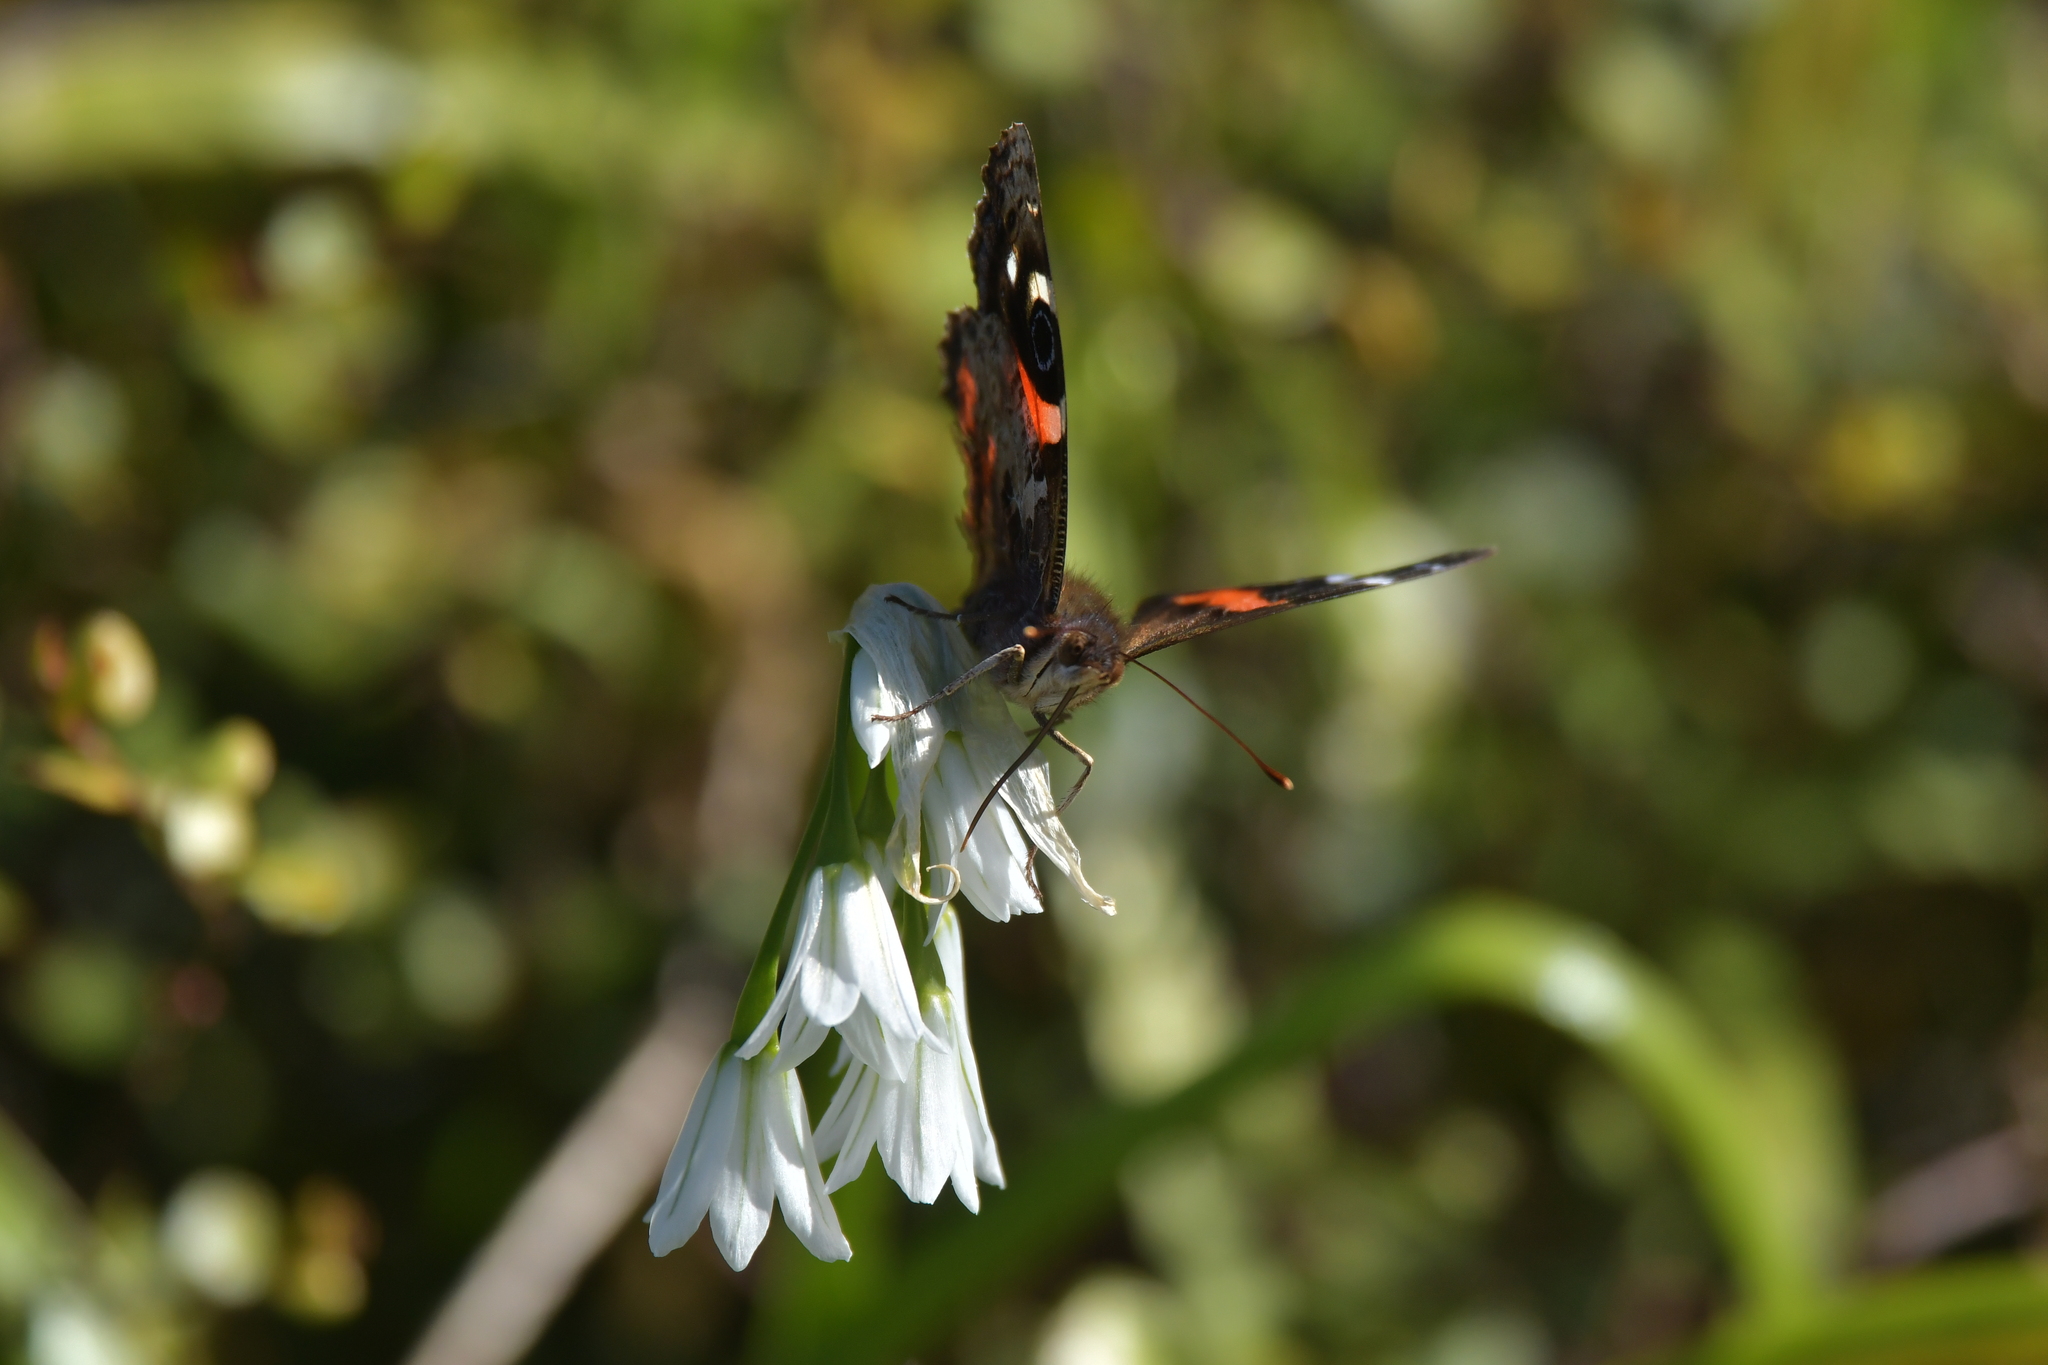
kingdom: Animalia
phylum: Arthropoda
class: Insecta
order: Lepidoptera
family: Nymphalidae
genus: Vanessa
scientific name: Vanessa gonerilla
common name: New zealand red admiral
